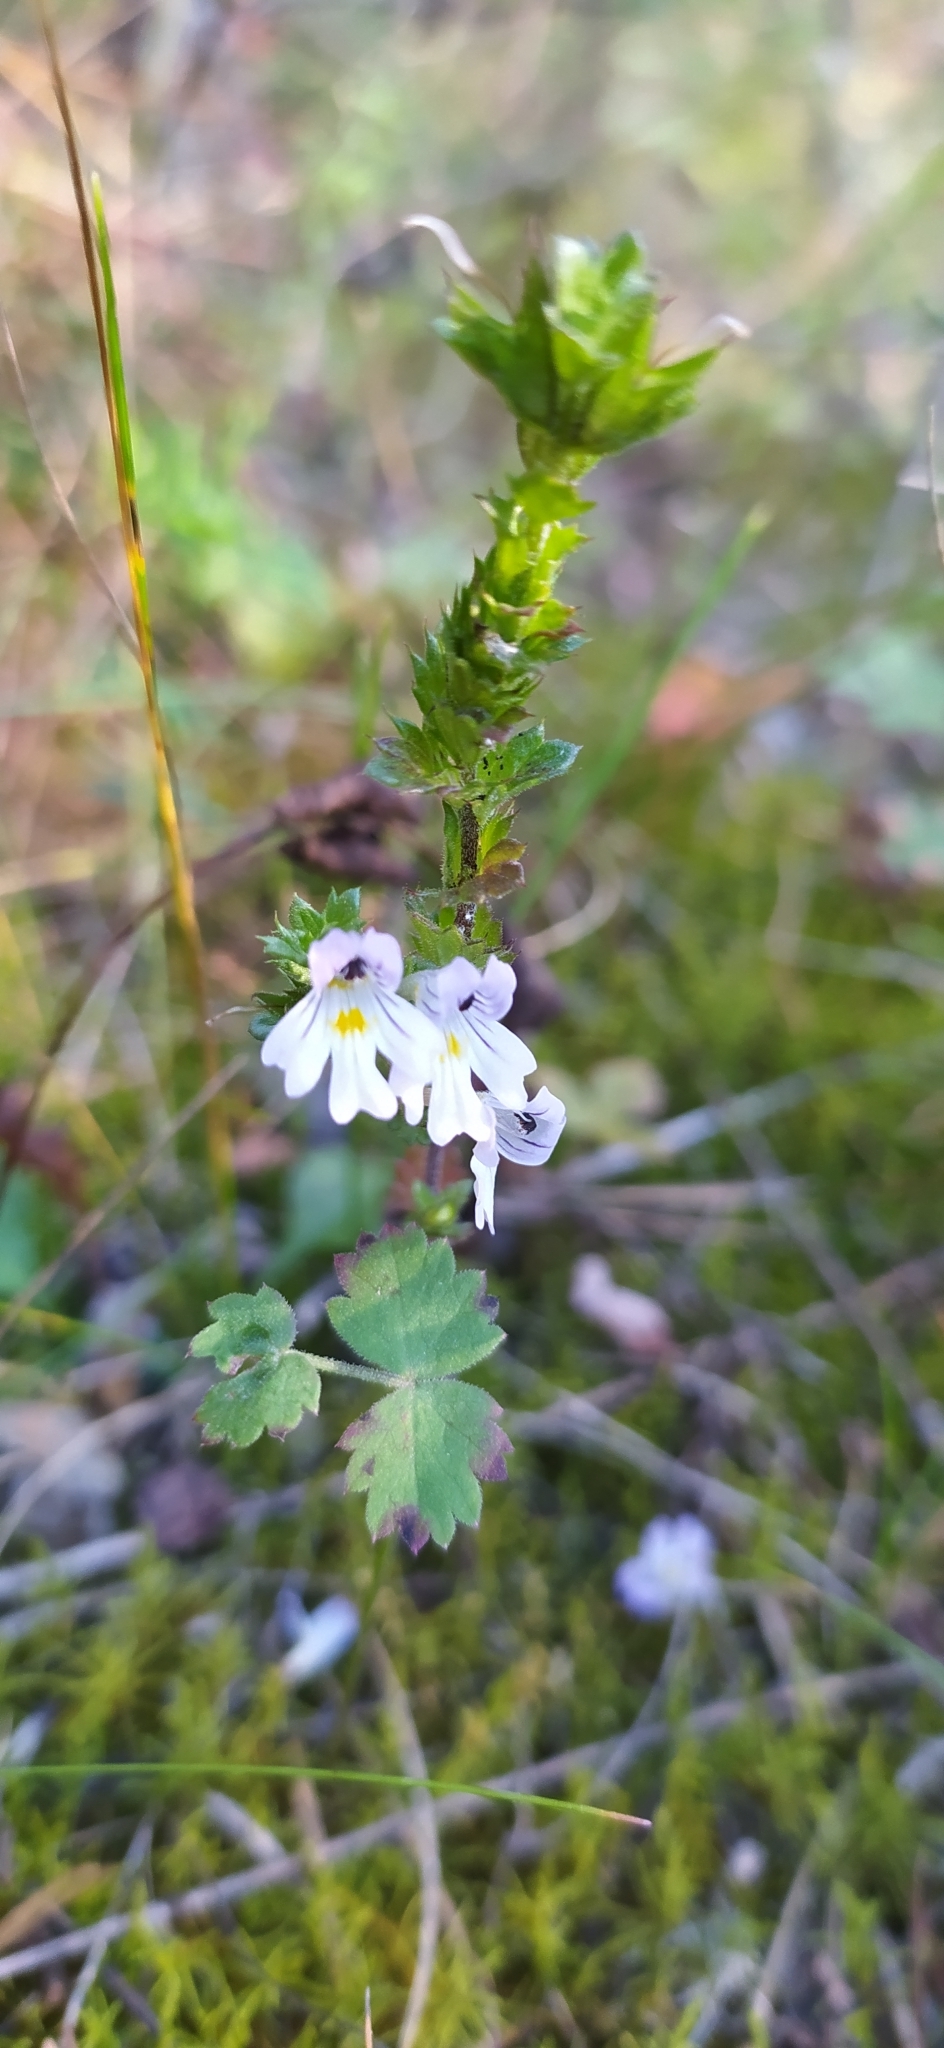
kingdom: Plantae
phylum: Tracheophyta
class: Magnoliopsida
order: Lamiales
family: Orobanchaceae
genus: Euphrasia
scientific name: Euphrasia stricta
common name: Drug eyebright
